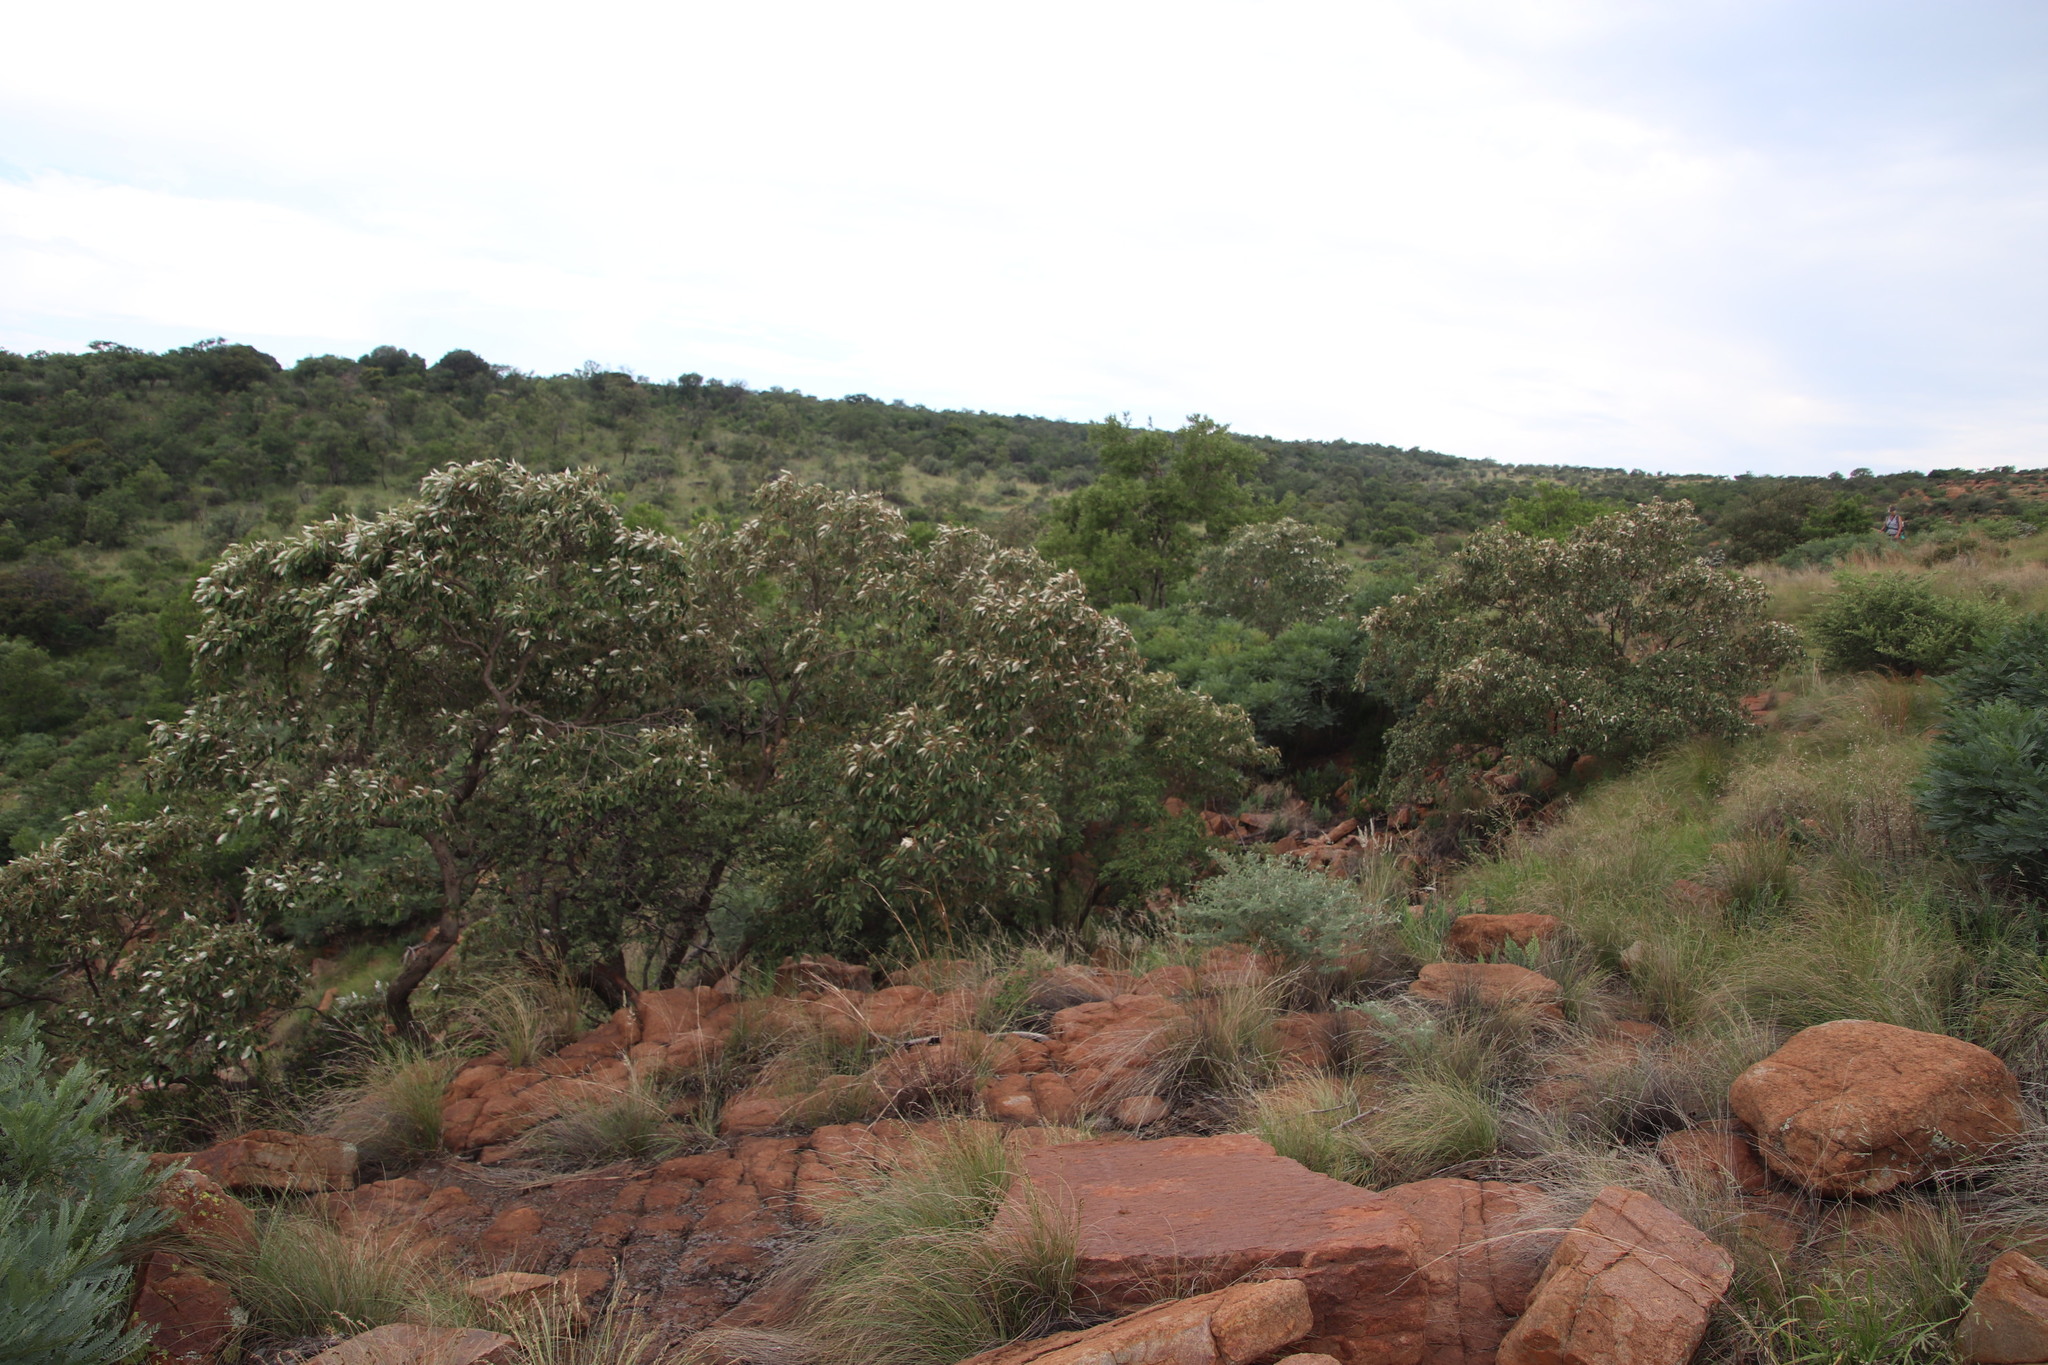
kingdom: Plantae
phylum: Tracheophyta
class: Magnoliopsida
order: Malpighiales
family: Euphorbiaceae
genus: Croton
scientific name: Croton gratissimus
